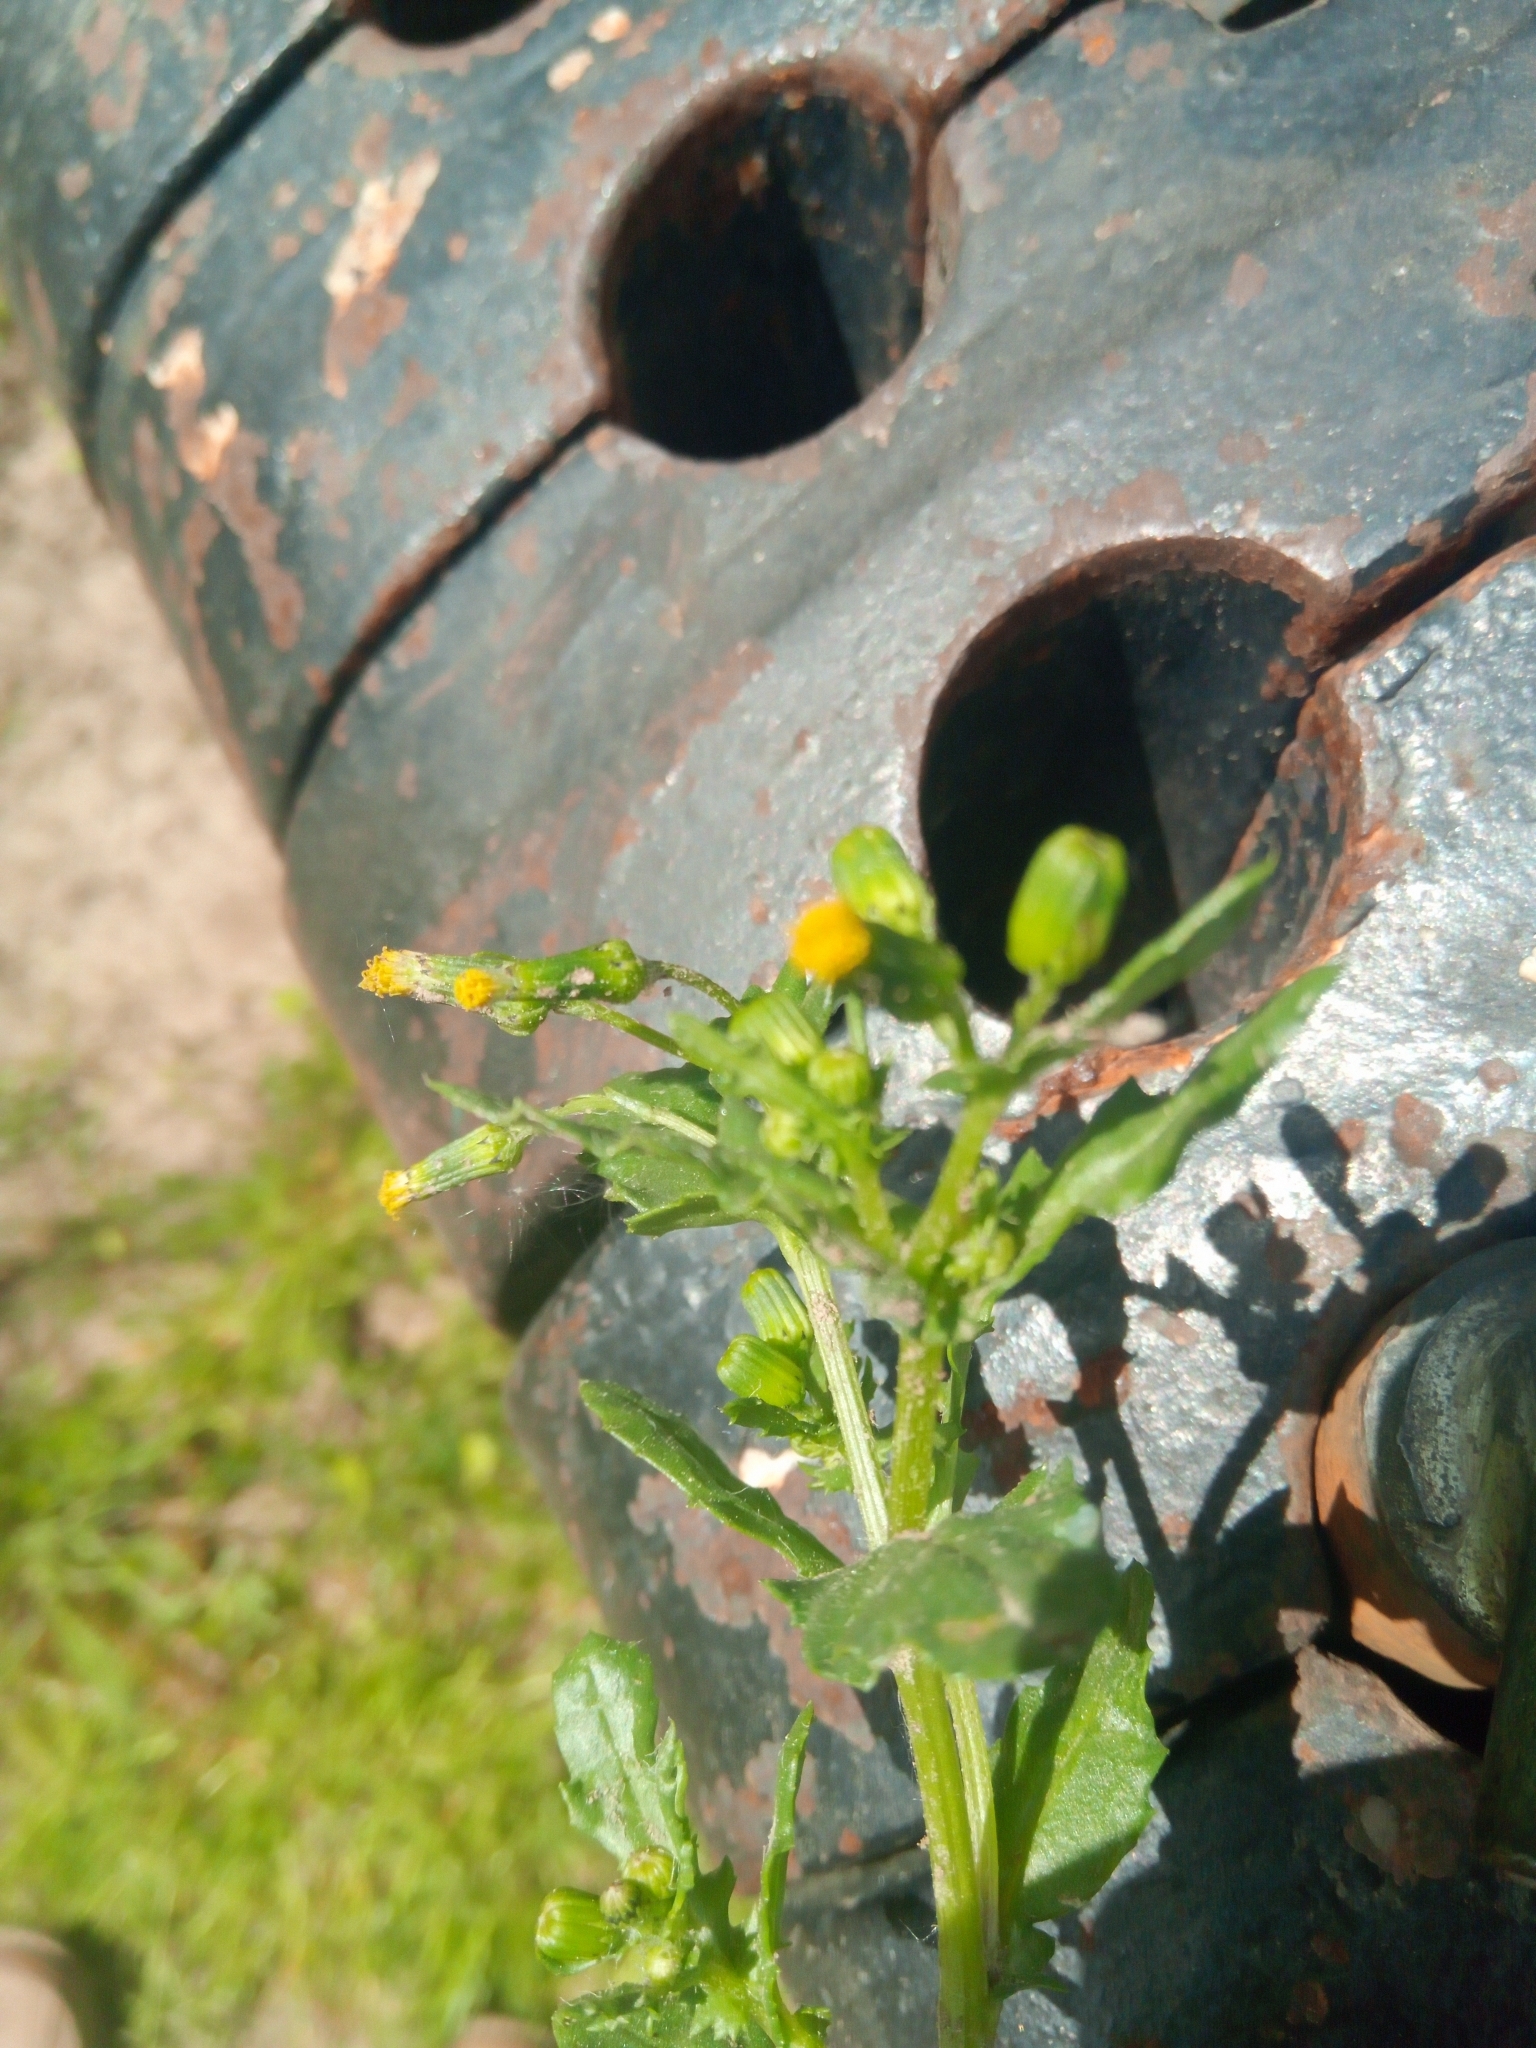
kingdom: Plantae
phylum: Tracheophyta
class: Magnoliopsida
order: Asterales
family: Asteraceae
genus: Senecio
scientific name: Senecio vulgaris
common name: Old-man-in-the-spring
